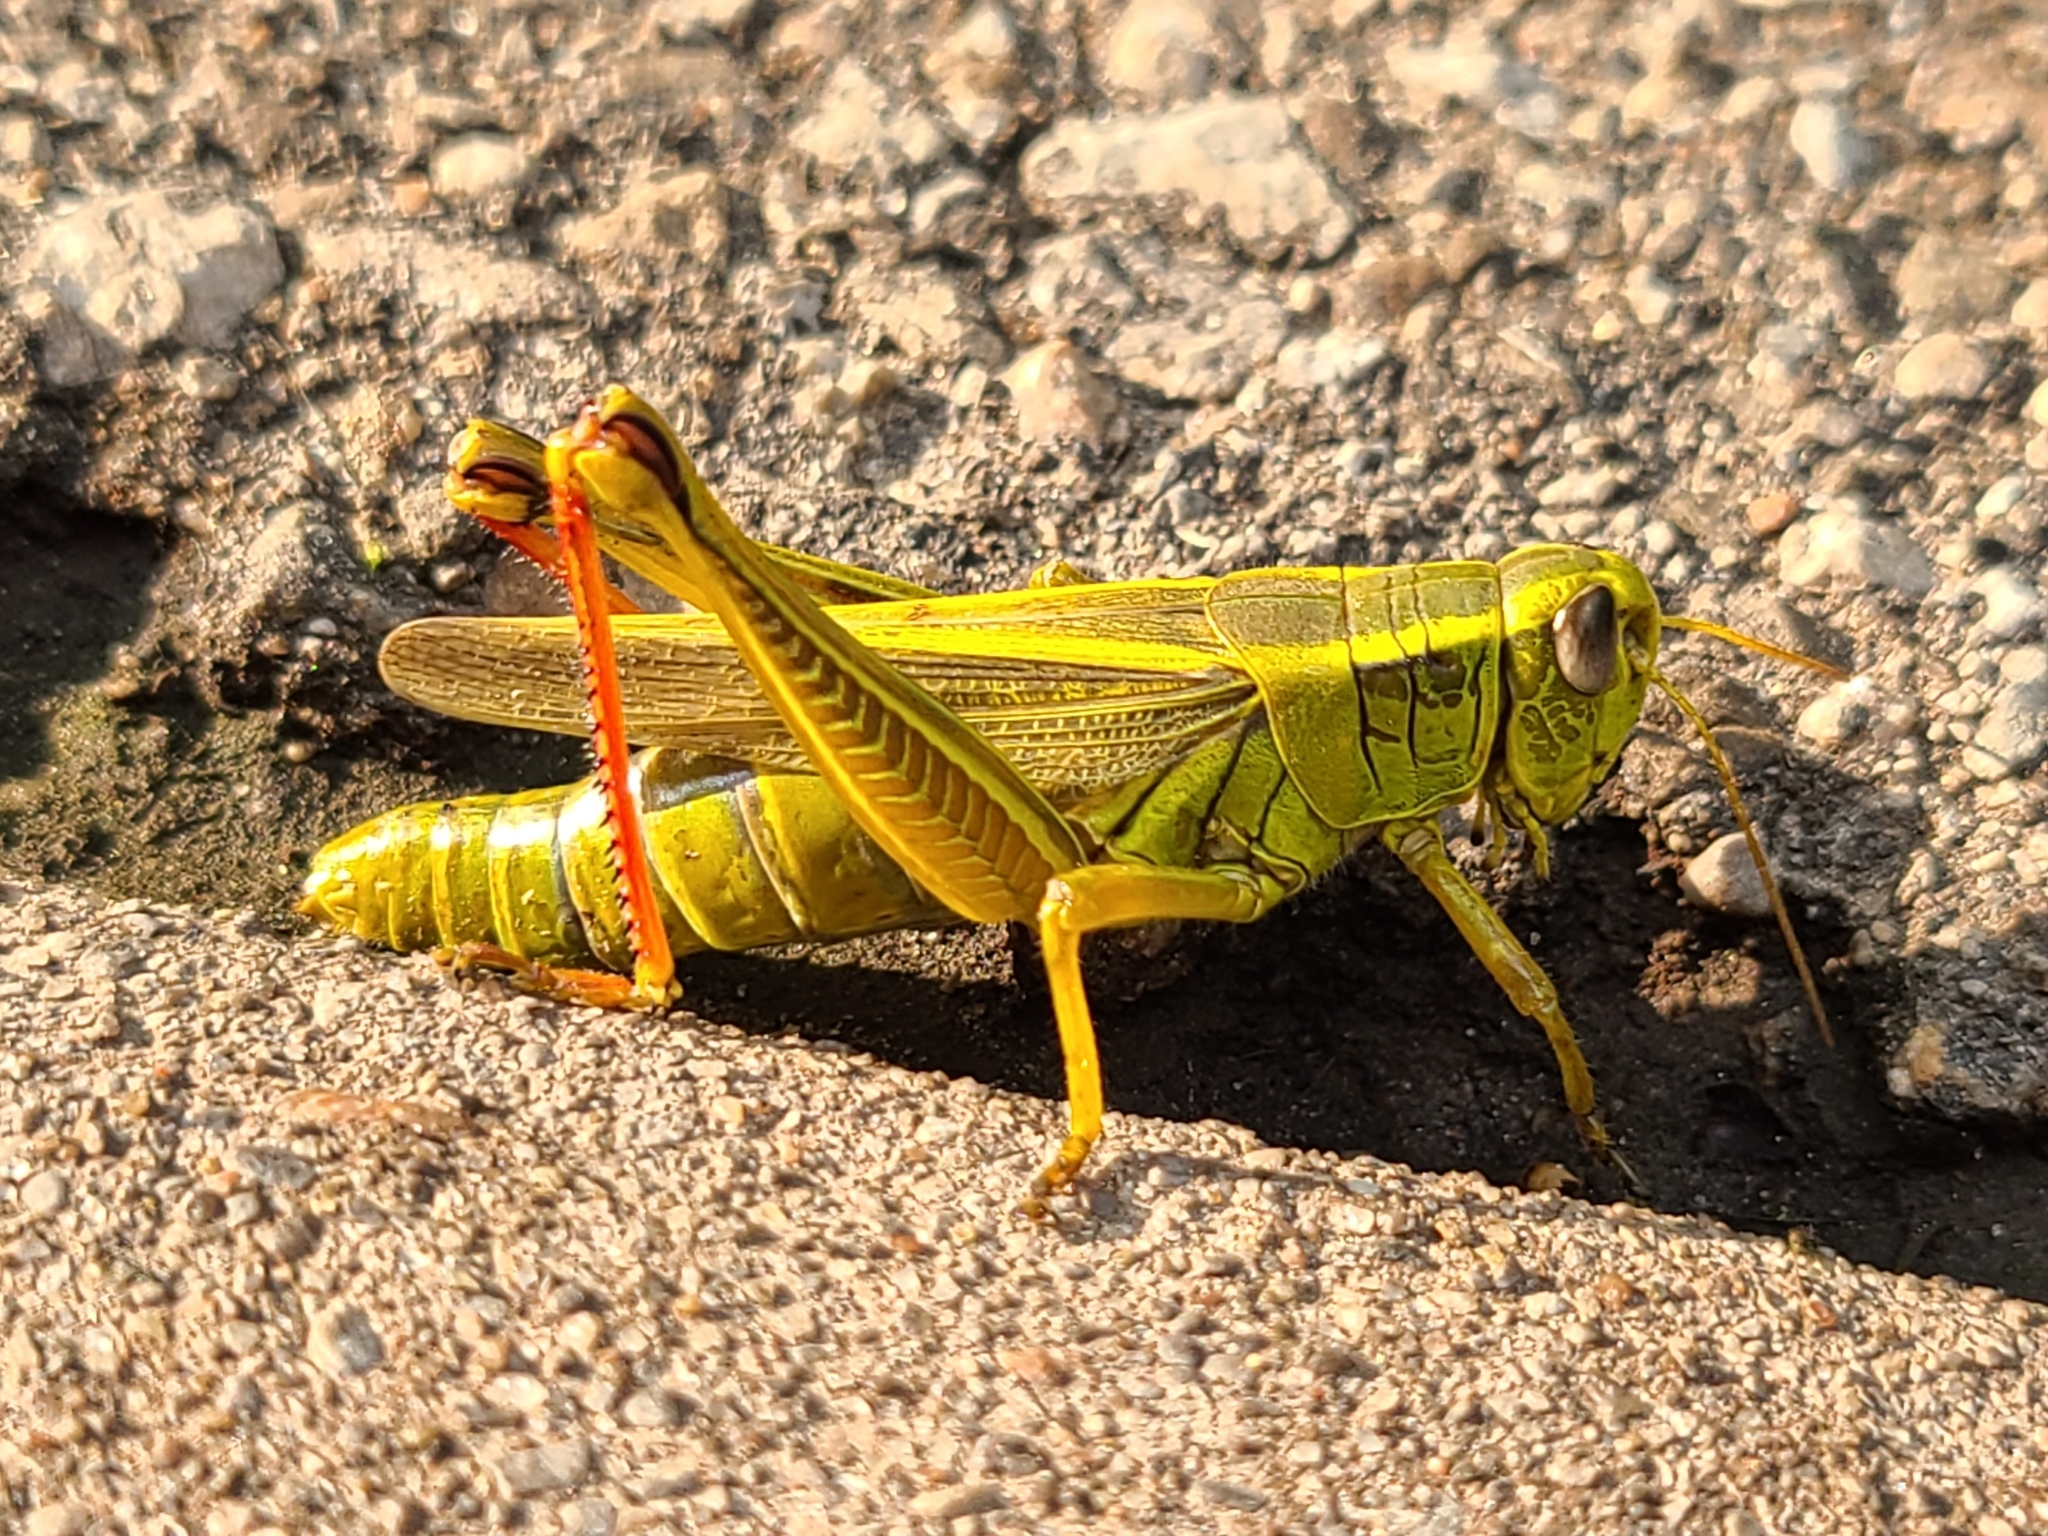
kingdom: Animalia
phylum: Arthropoda
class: Insecta
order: Orthoptera
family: Acrididae
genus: Melanoplus
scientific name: Melanoplus bivittatus
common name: Two-striped grasshopper
